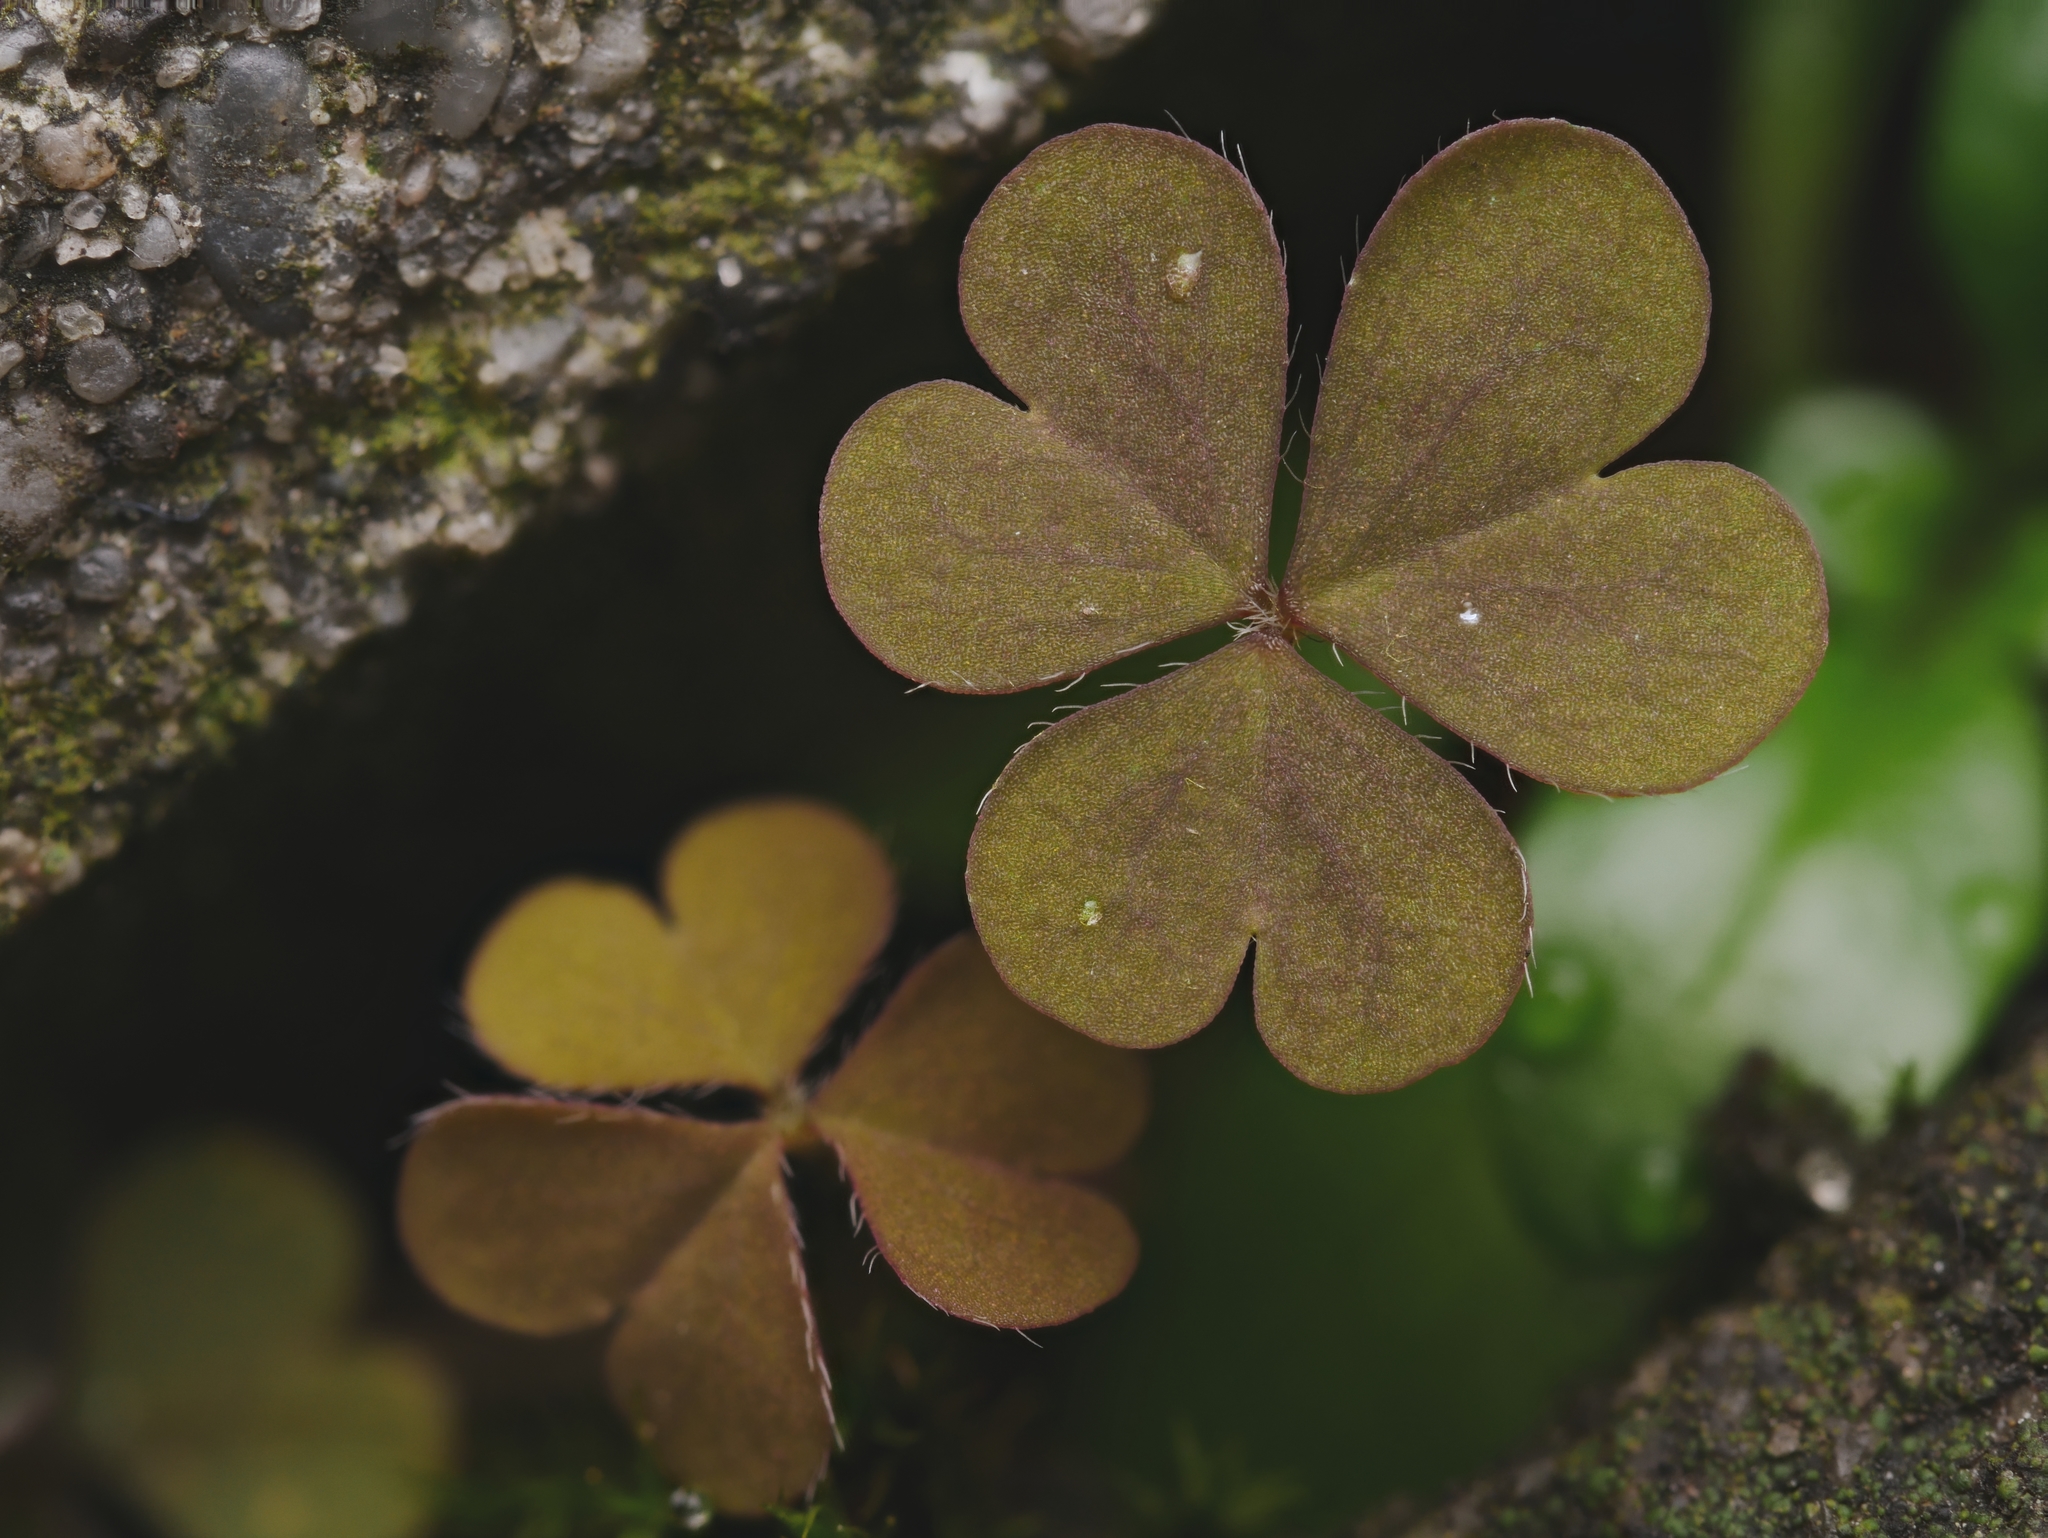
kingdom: Plantae
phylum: Tracheophyta
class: Magnoliopsida
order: Oxalidales
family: Oxalidaceae
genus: Oxalis
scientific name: Oxalis corniculata
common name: Procumbent yellow-sorrel
